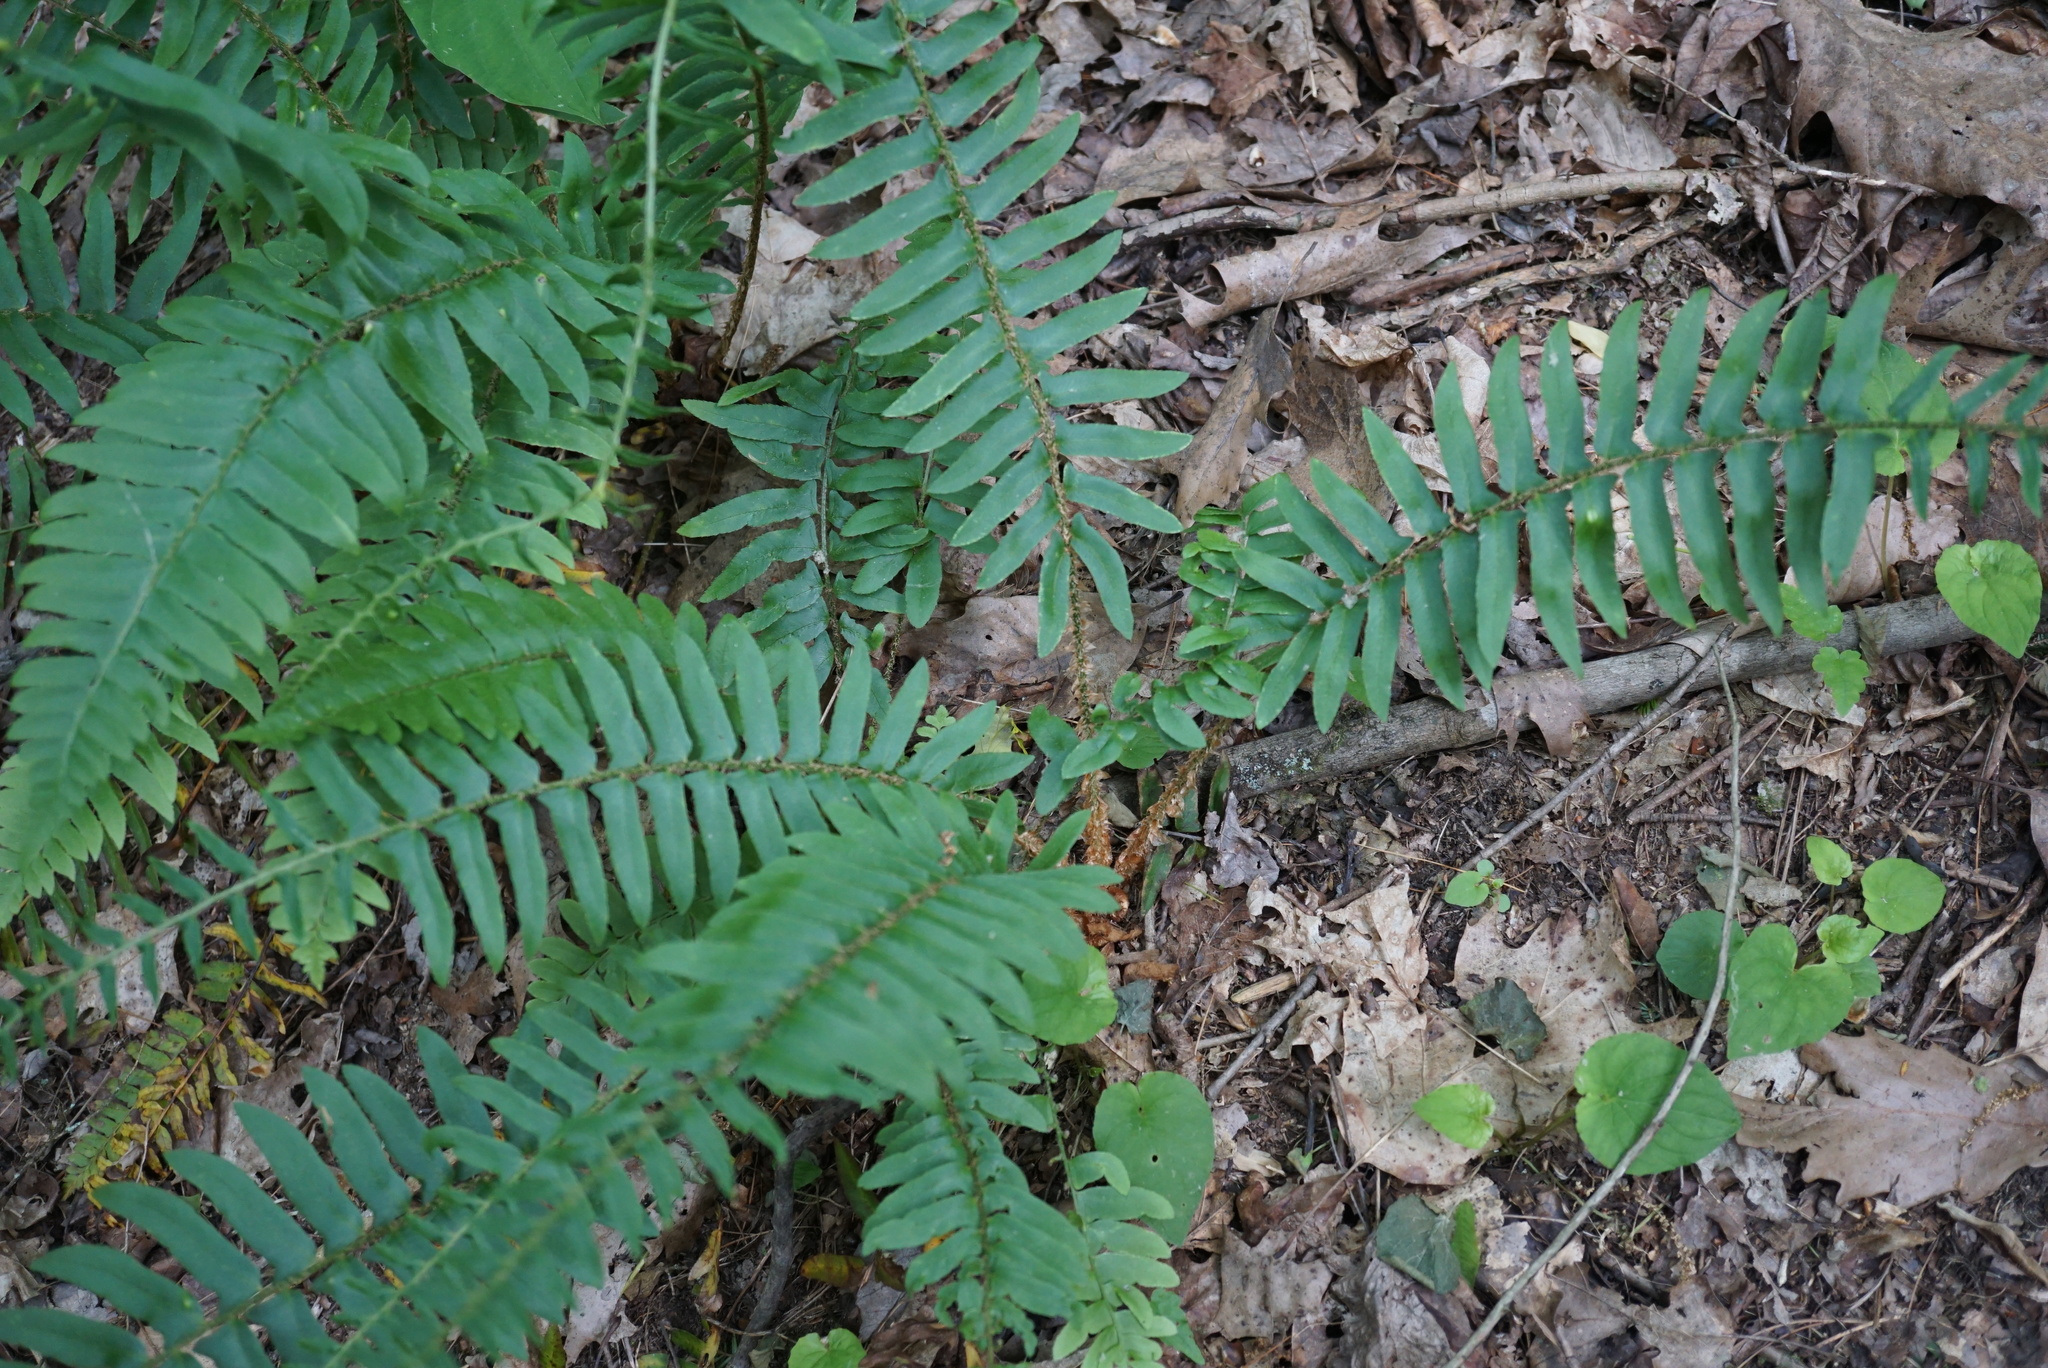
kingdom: Plantae
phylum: Tracheophyta
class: Polypodiopsida
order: Polypodiales
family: Dryopteridaceae
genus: Polystichum
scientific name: Polystichum acrostichoides
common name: Christmas fern
